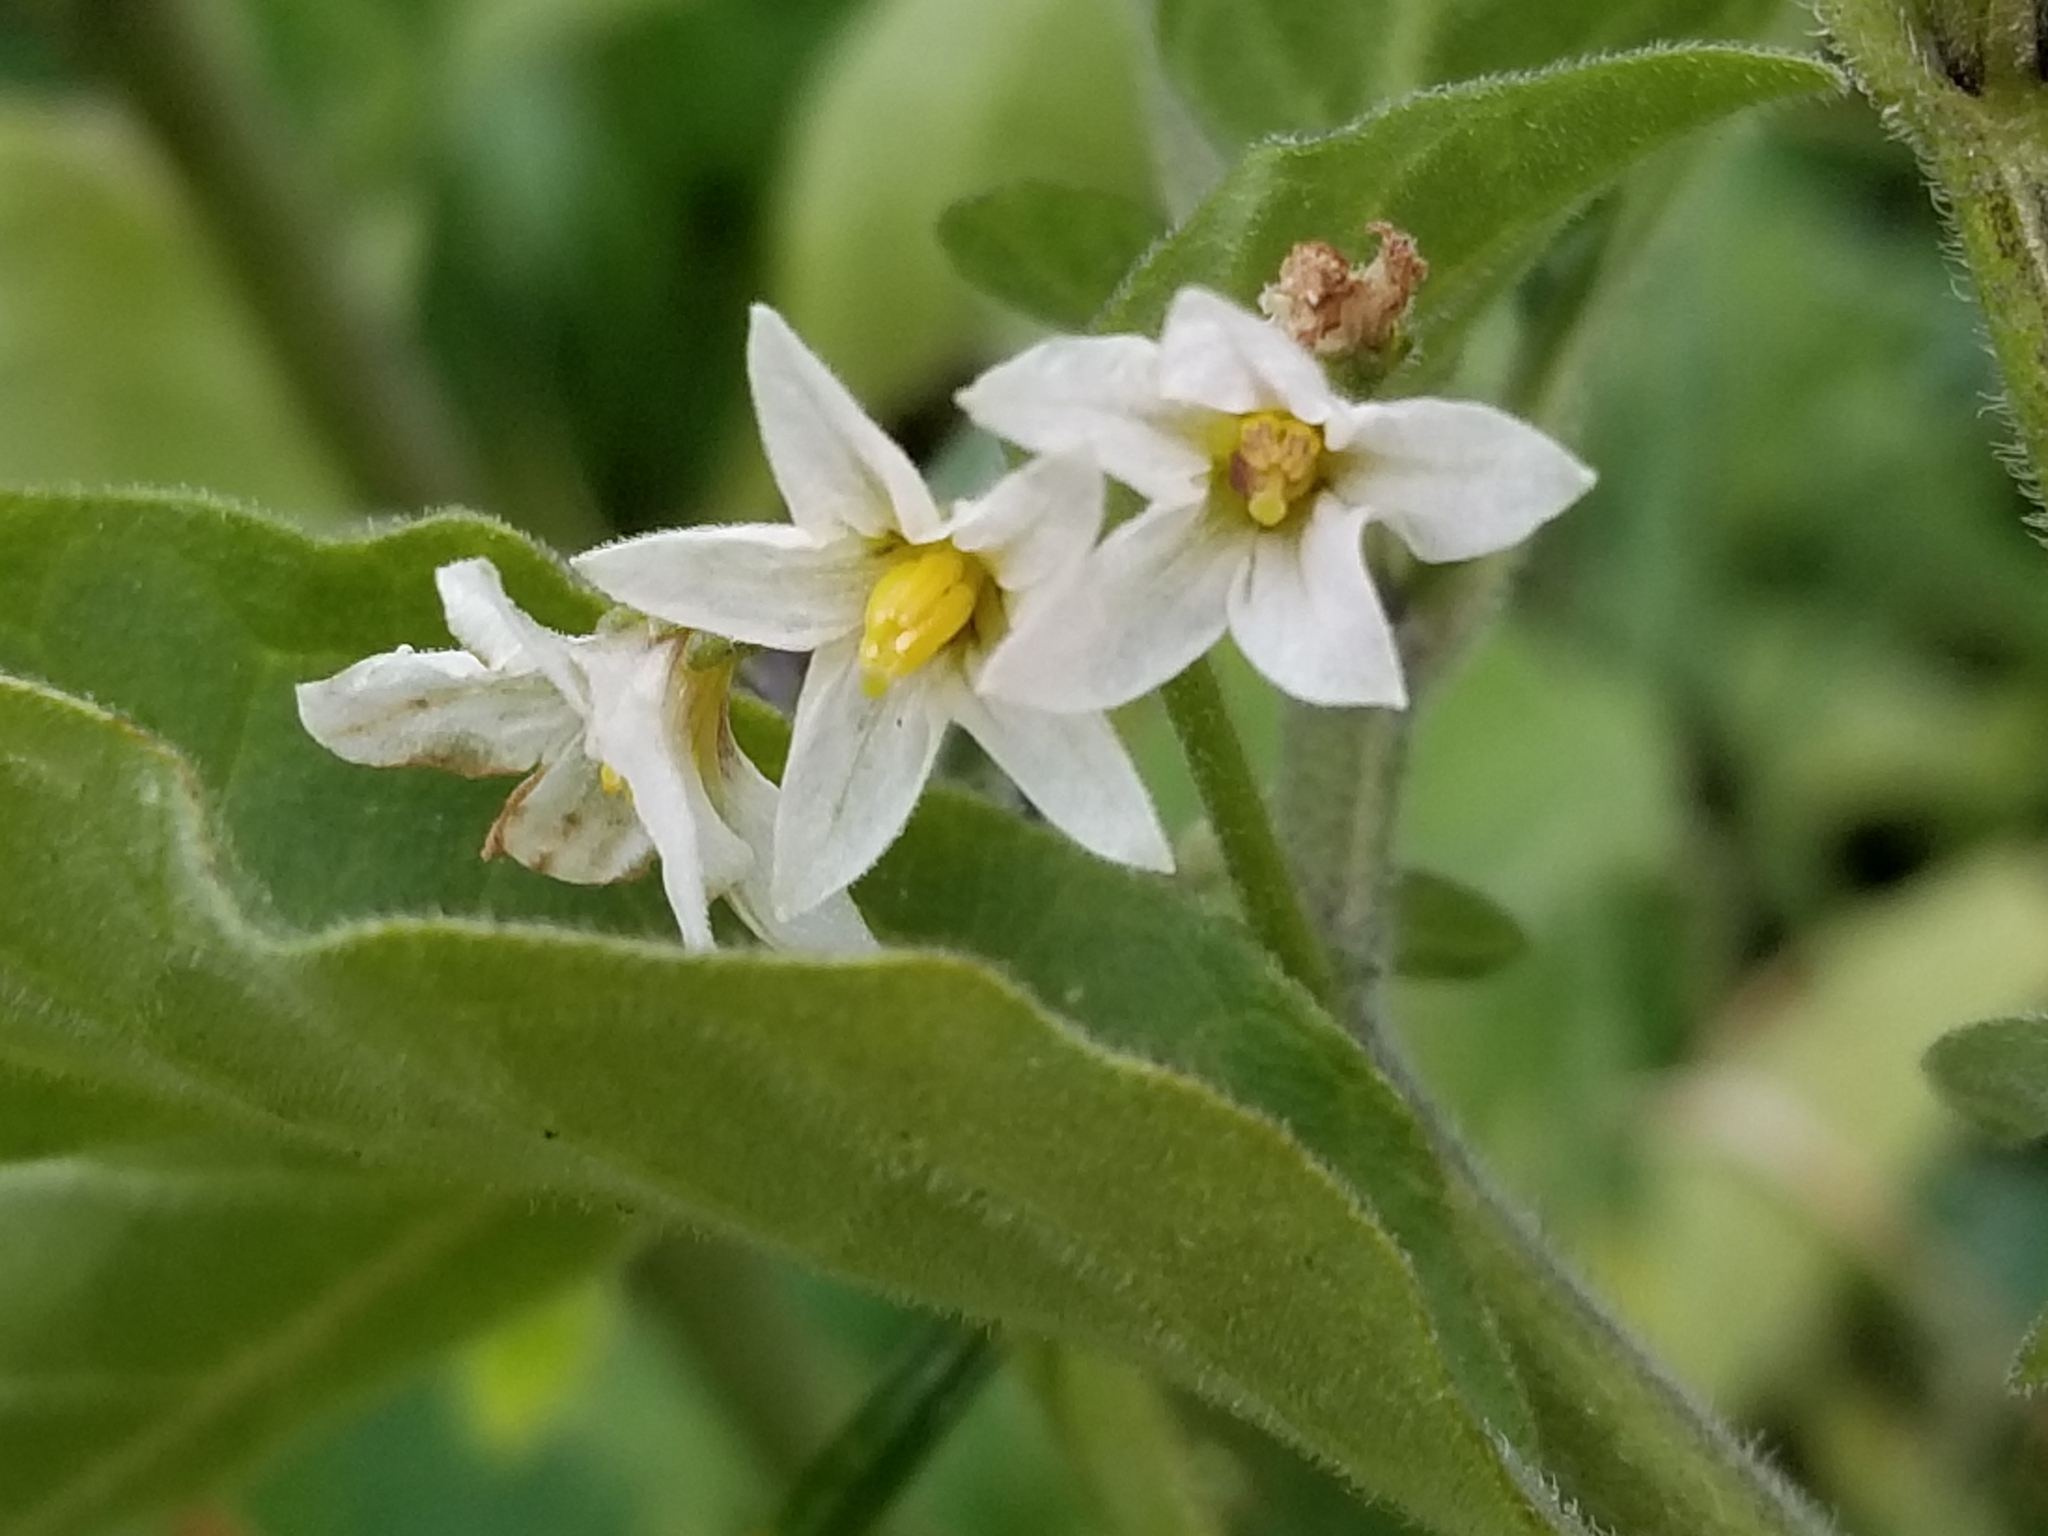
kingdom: Plantae
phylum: Tracheophyta
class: Magnoliopsida
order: Solanales
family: Solanaceae
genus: Solanum
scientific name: Solanum chenopodioides
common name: Tall nightshade
